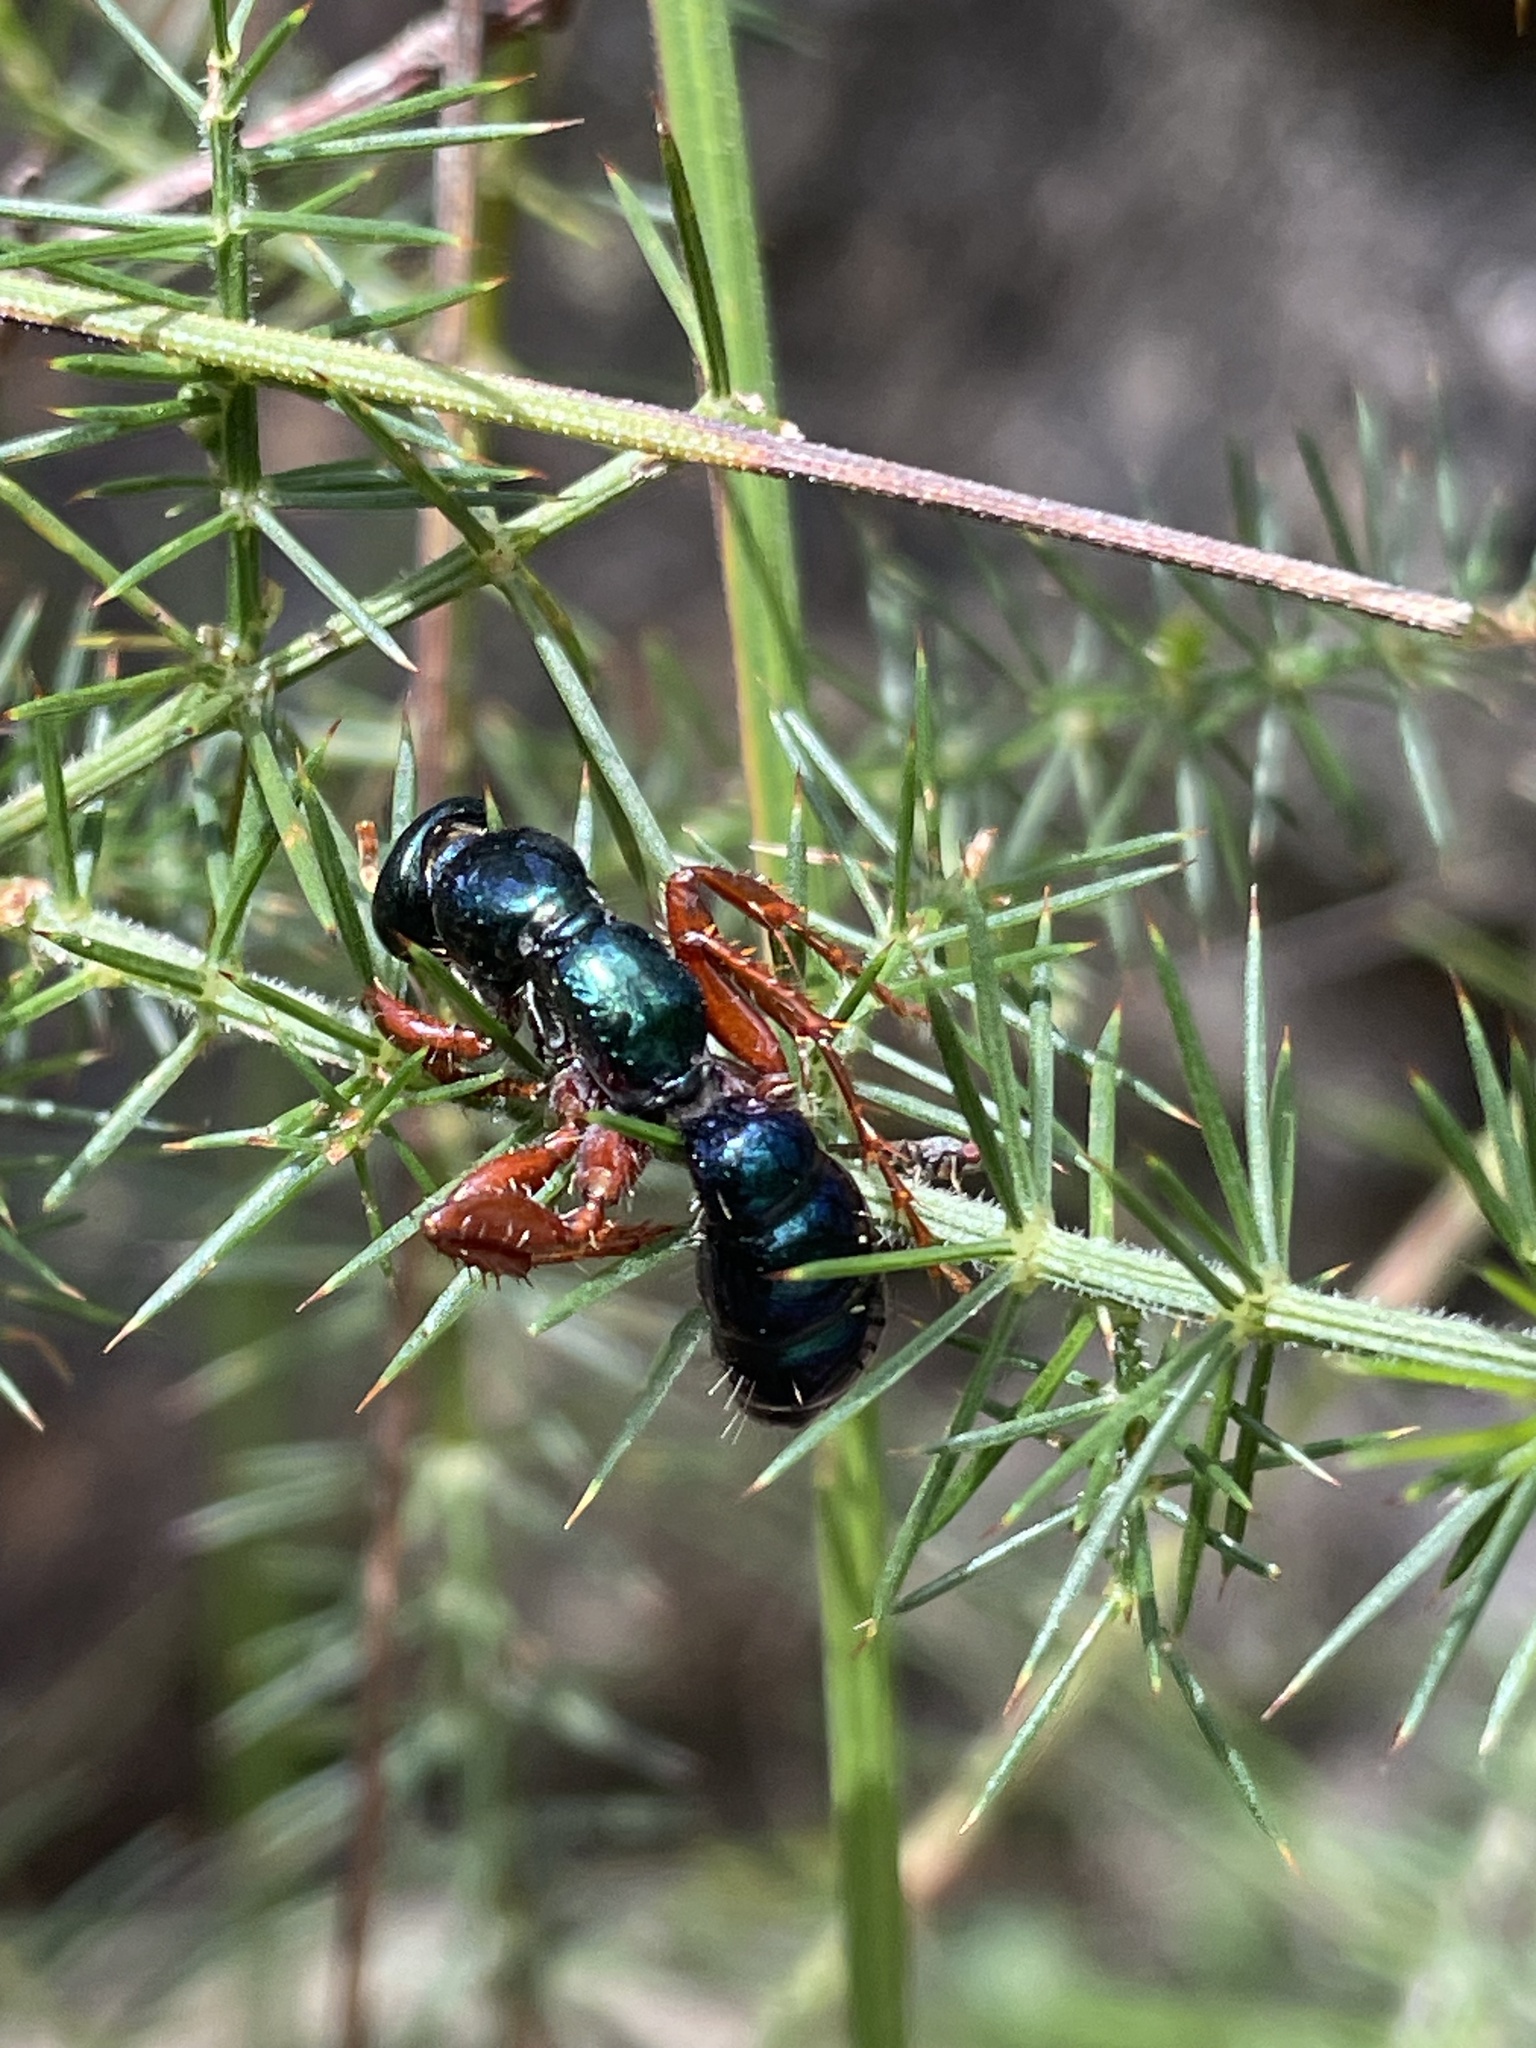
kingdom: Animalia
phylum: Arthropoda
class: Insecta
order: Hymenoptera
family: Tiphiidae
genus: Diamma
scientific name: Diamma
